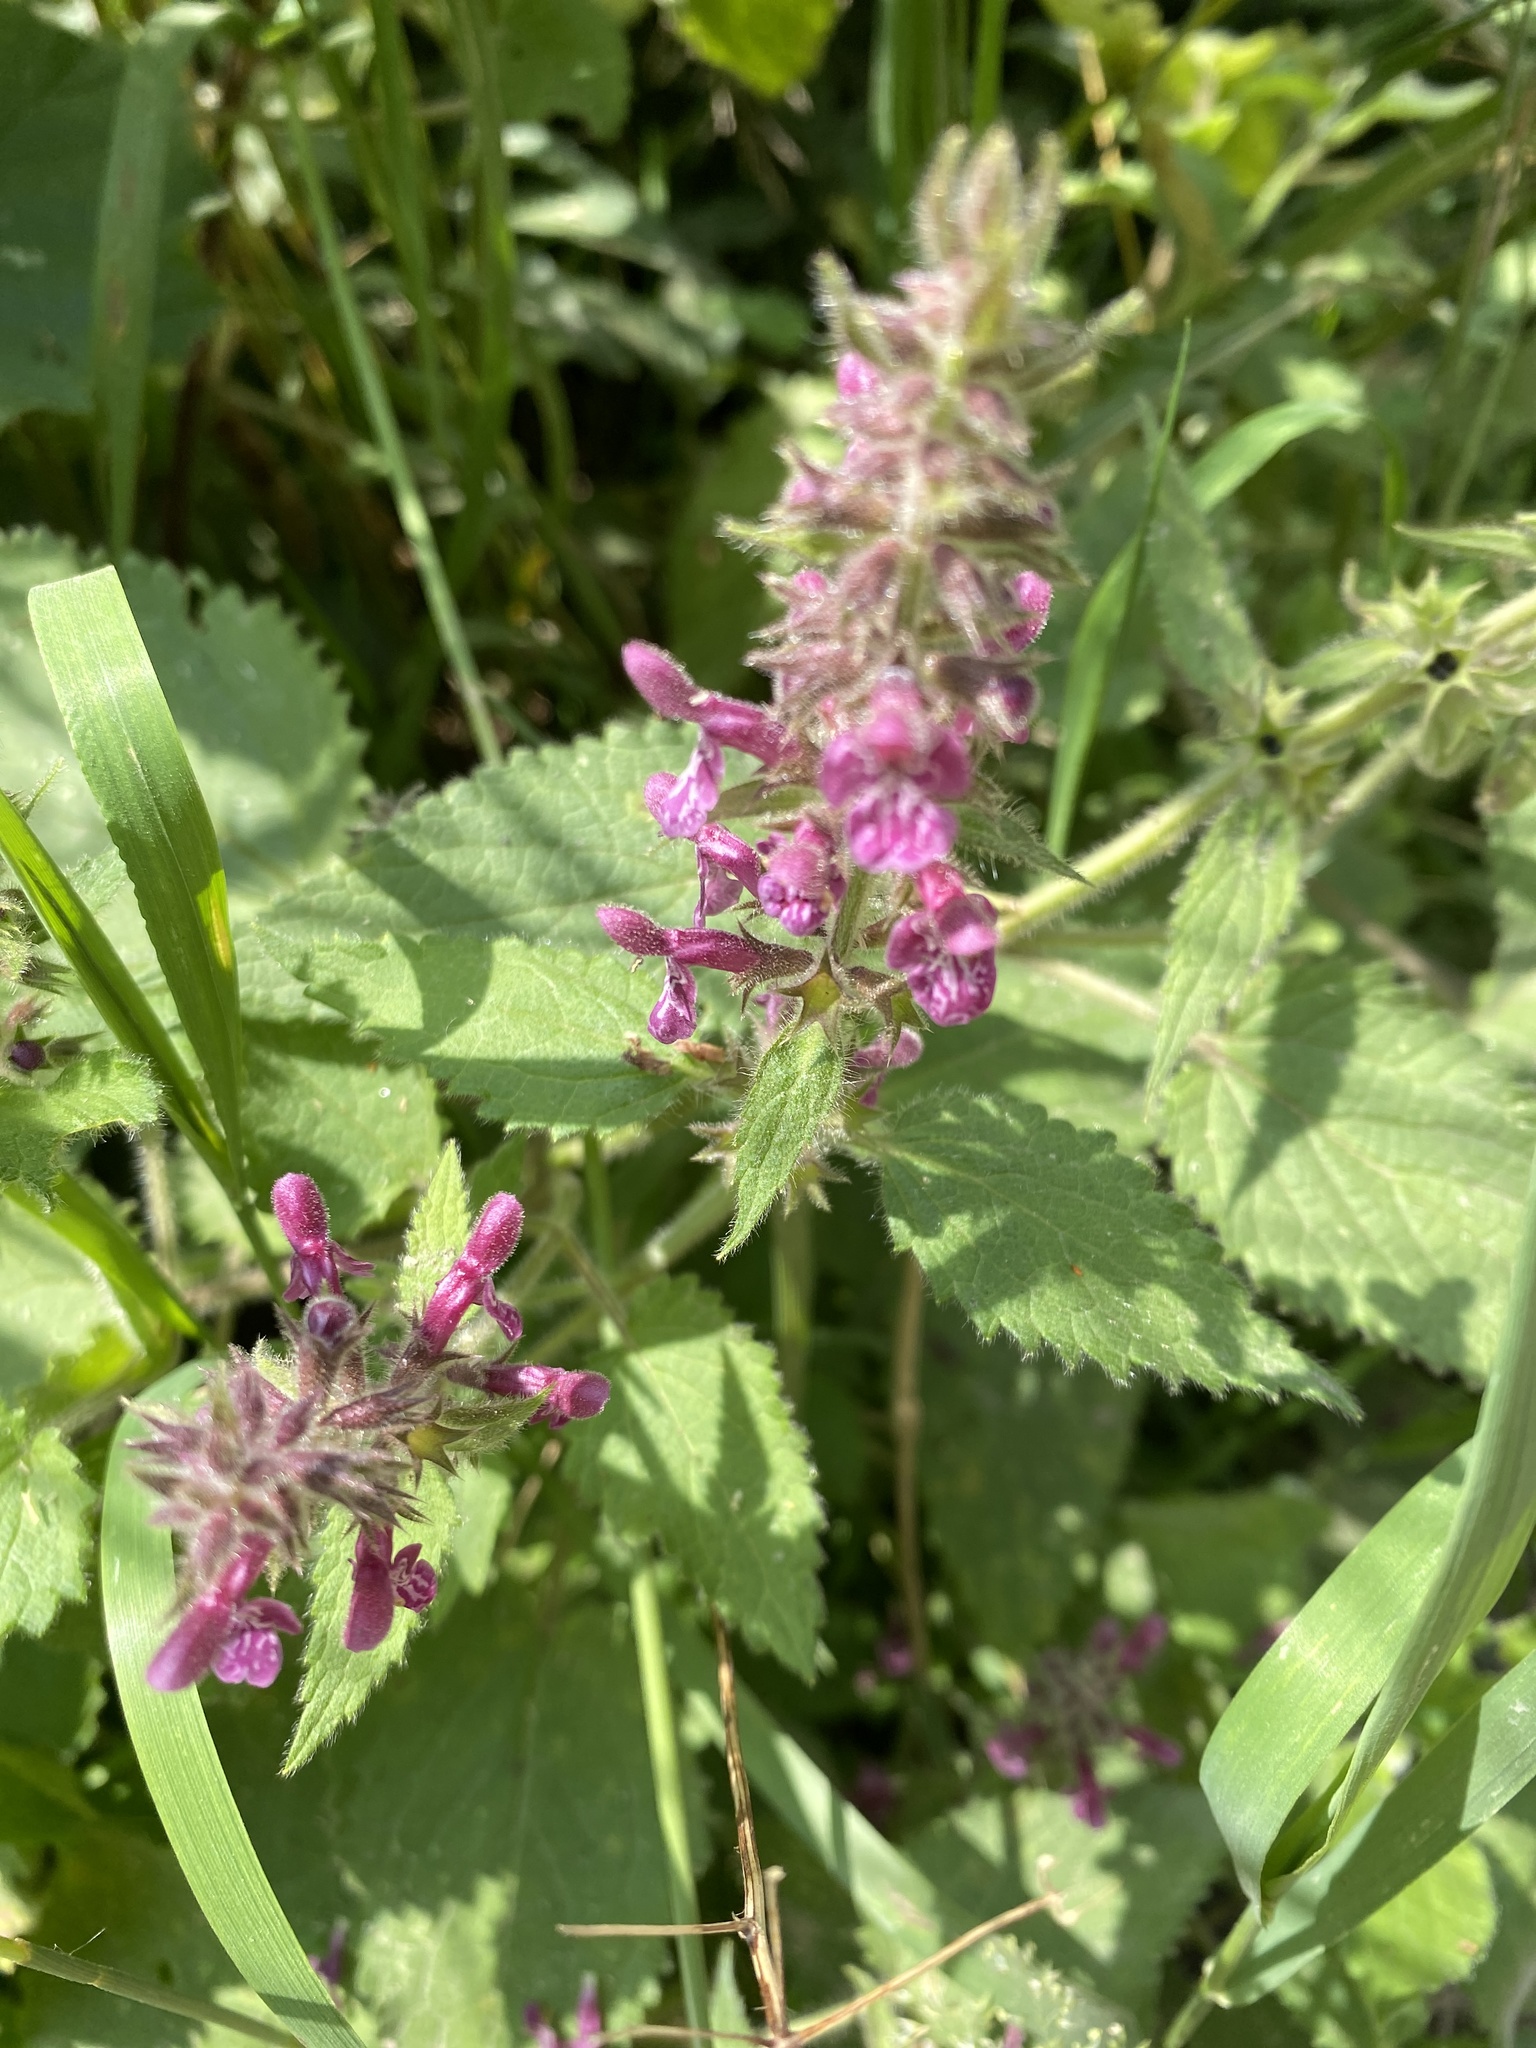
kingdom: Plantae
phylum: Tracheophyta
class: Magnoliopsida
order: Lamiales
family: Lamiaceae
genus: Stachys
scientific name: Stachys sylvatica
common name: Hedge woundwort
